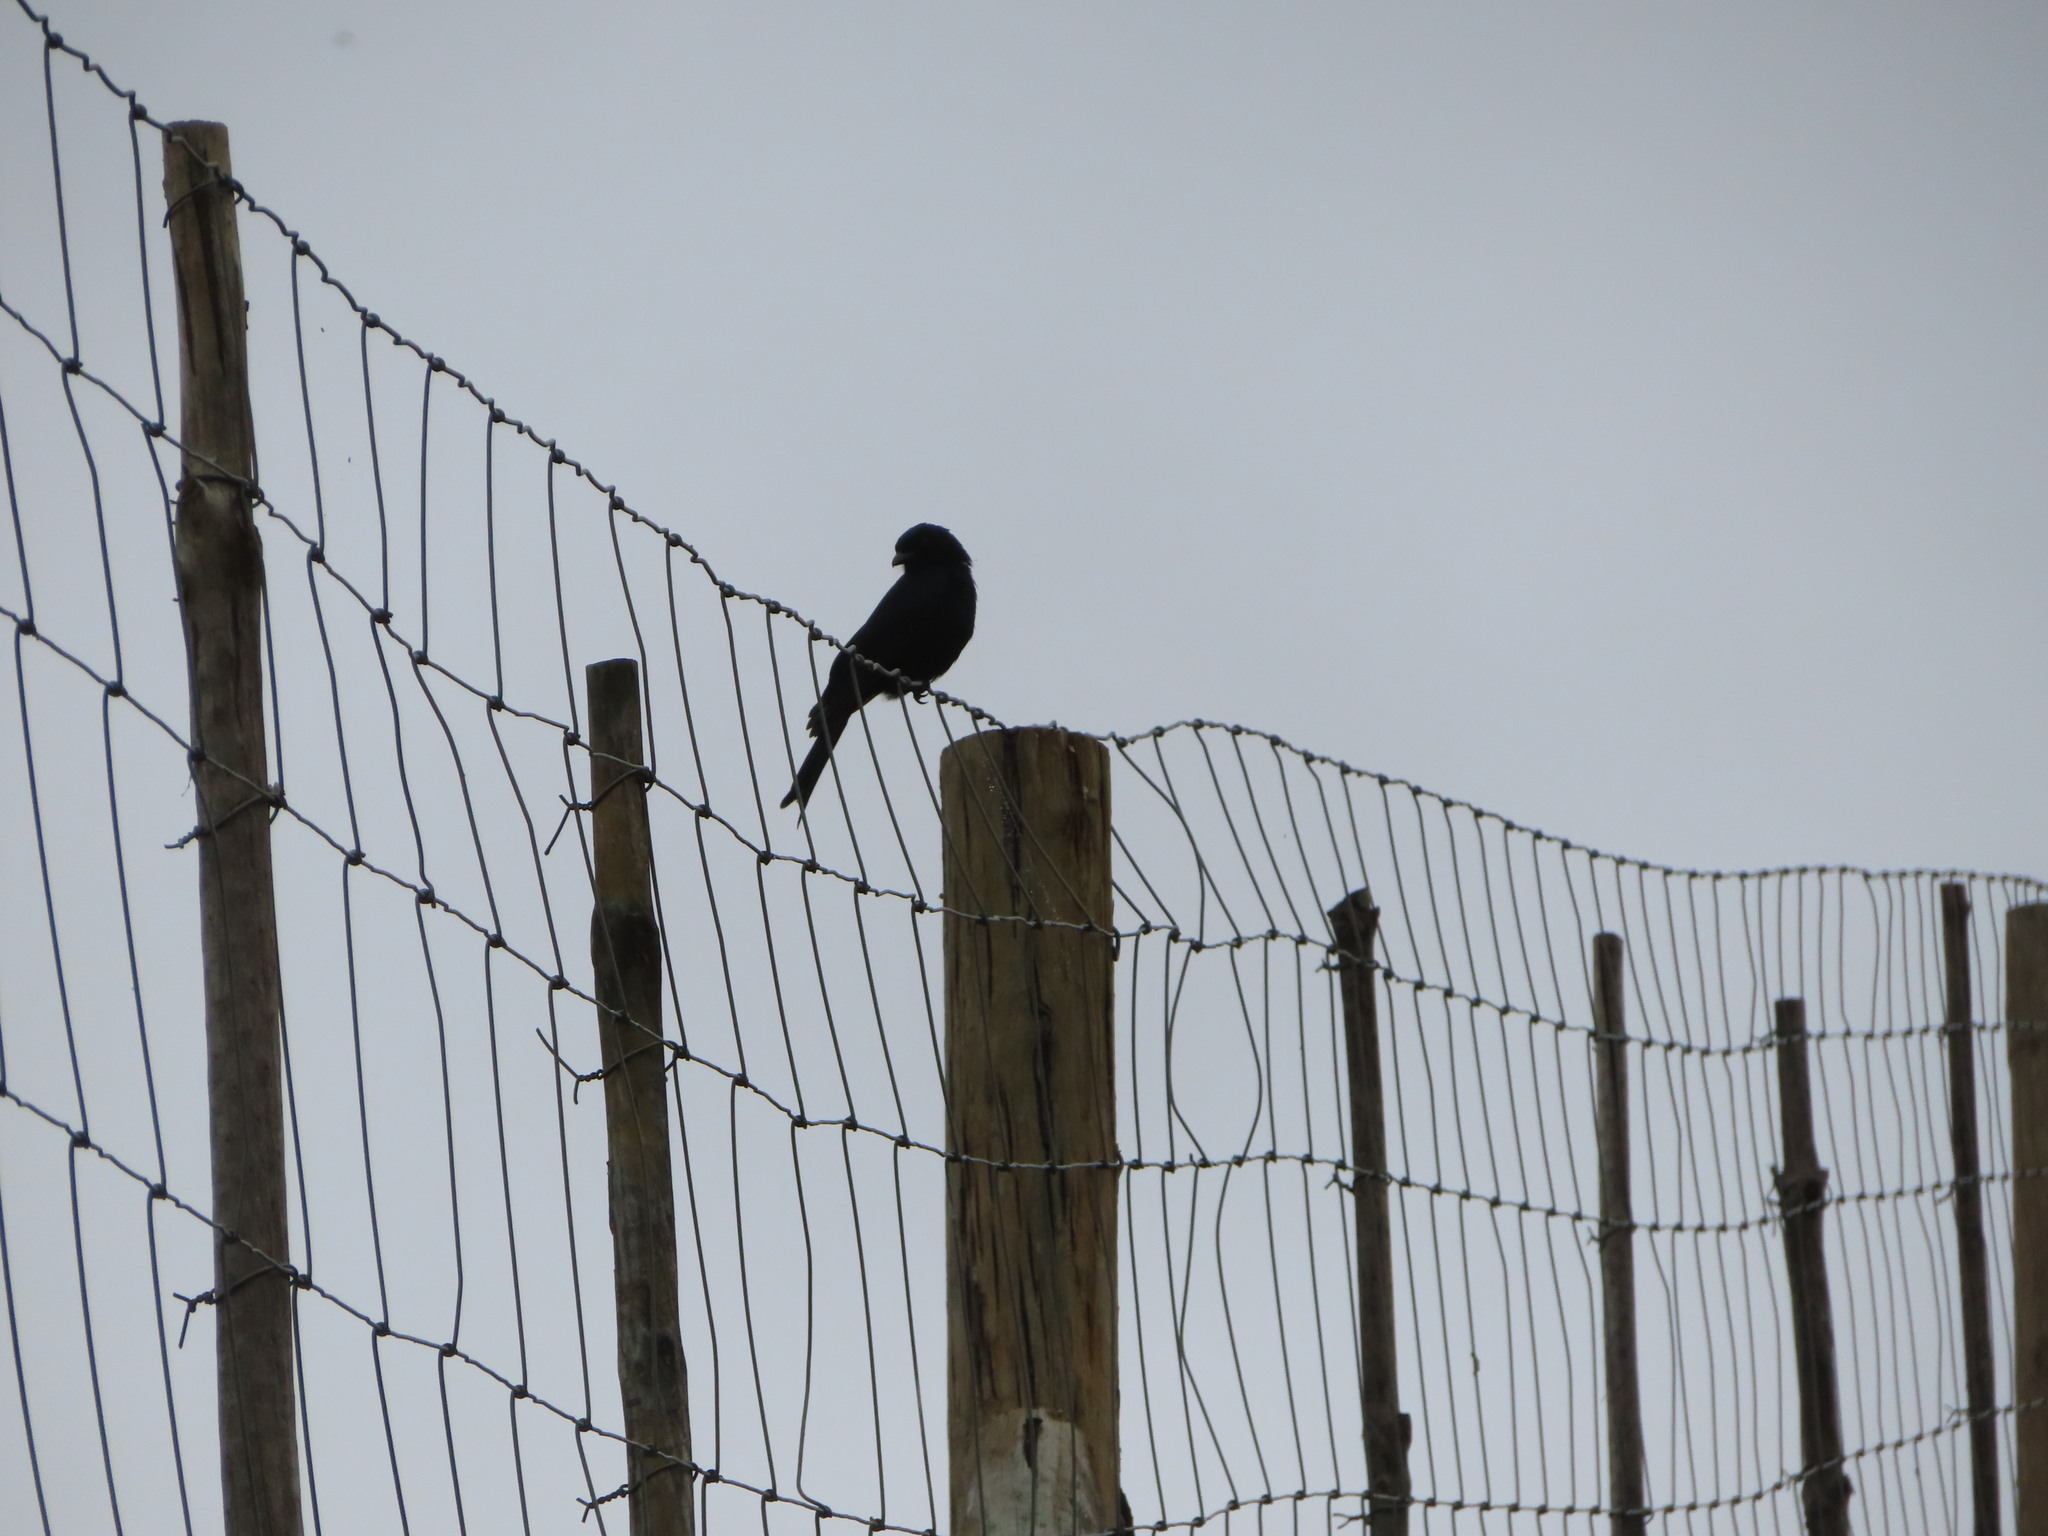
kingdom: Animalia
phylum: Chordata
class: Aves
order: Passeriformes
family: Dicruridae
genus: Dicrurus
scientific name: Dicrurus adsimilis
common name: Fork-tailed drongo
